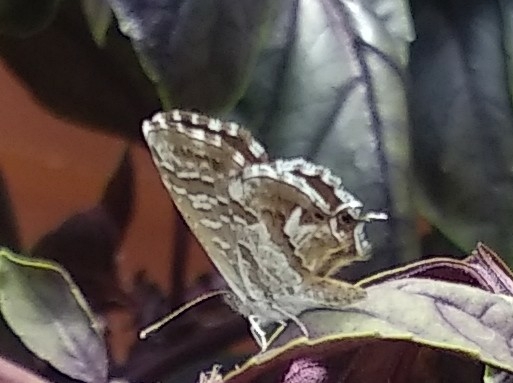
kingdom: Animalia
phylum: Arthropoda
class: Insecta
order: Lepidoptera
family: Lycaenidae
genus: Cacyreus
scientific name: Cacyreus marshalli
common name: Geranium bronze
